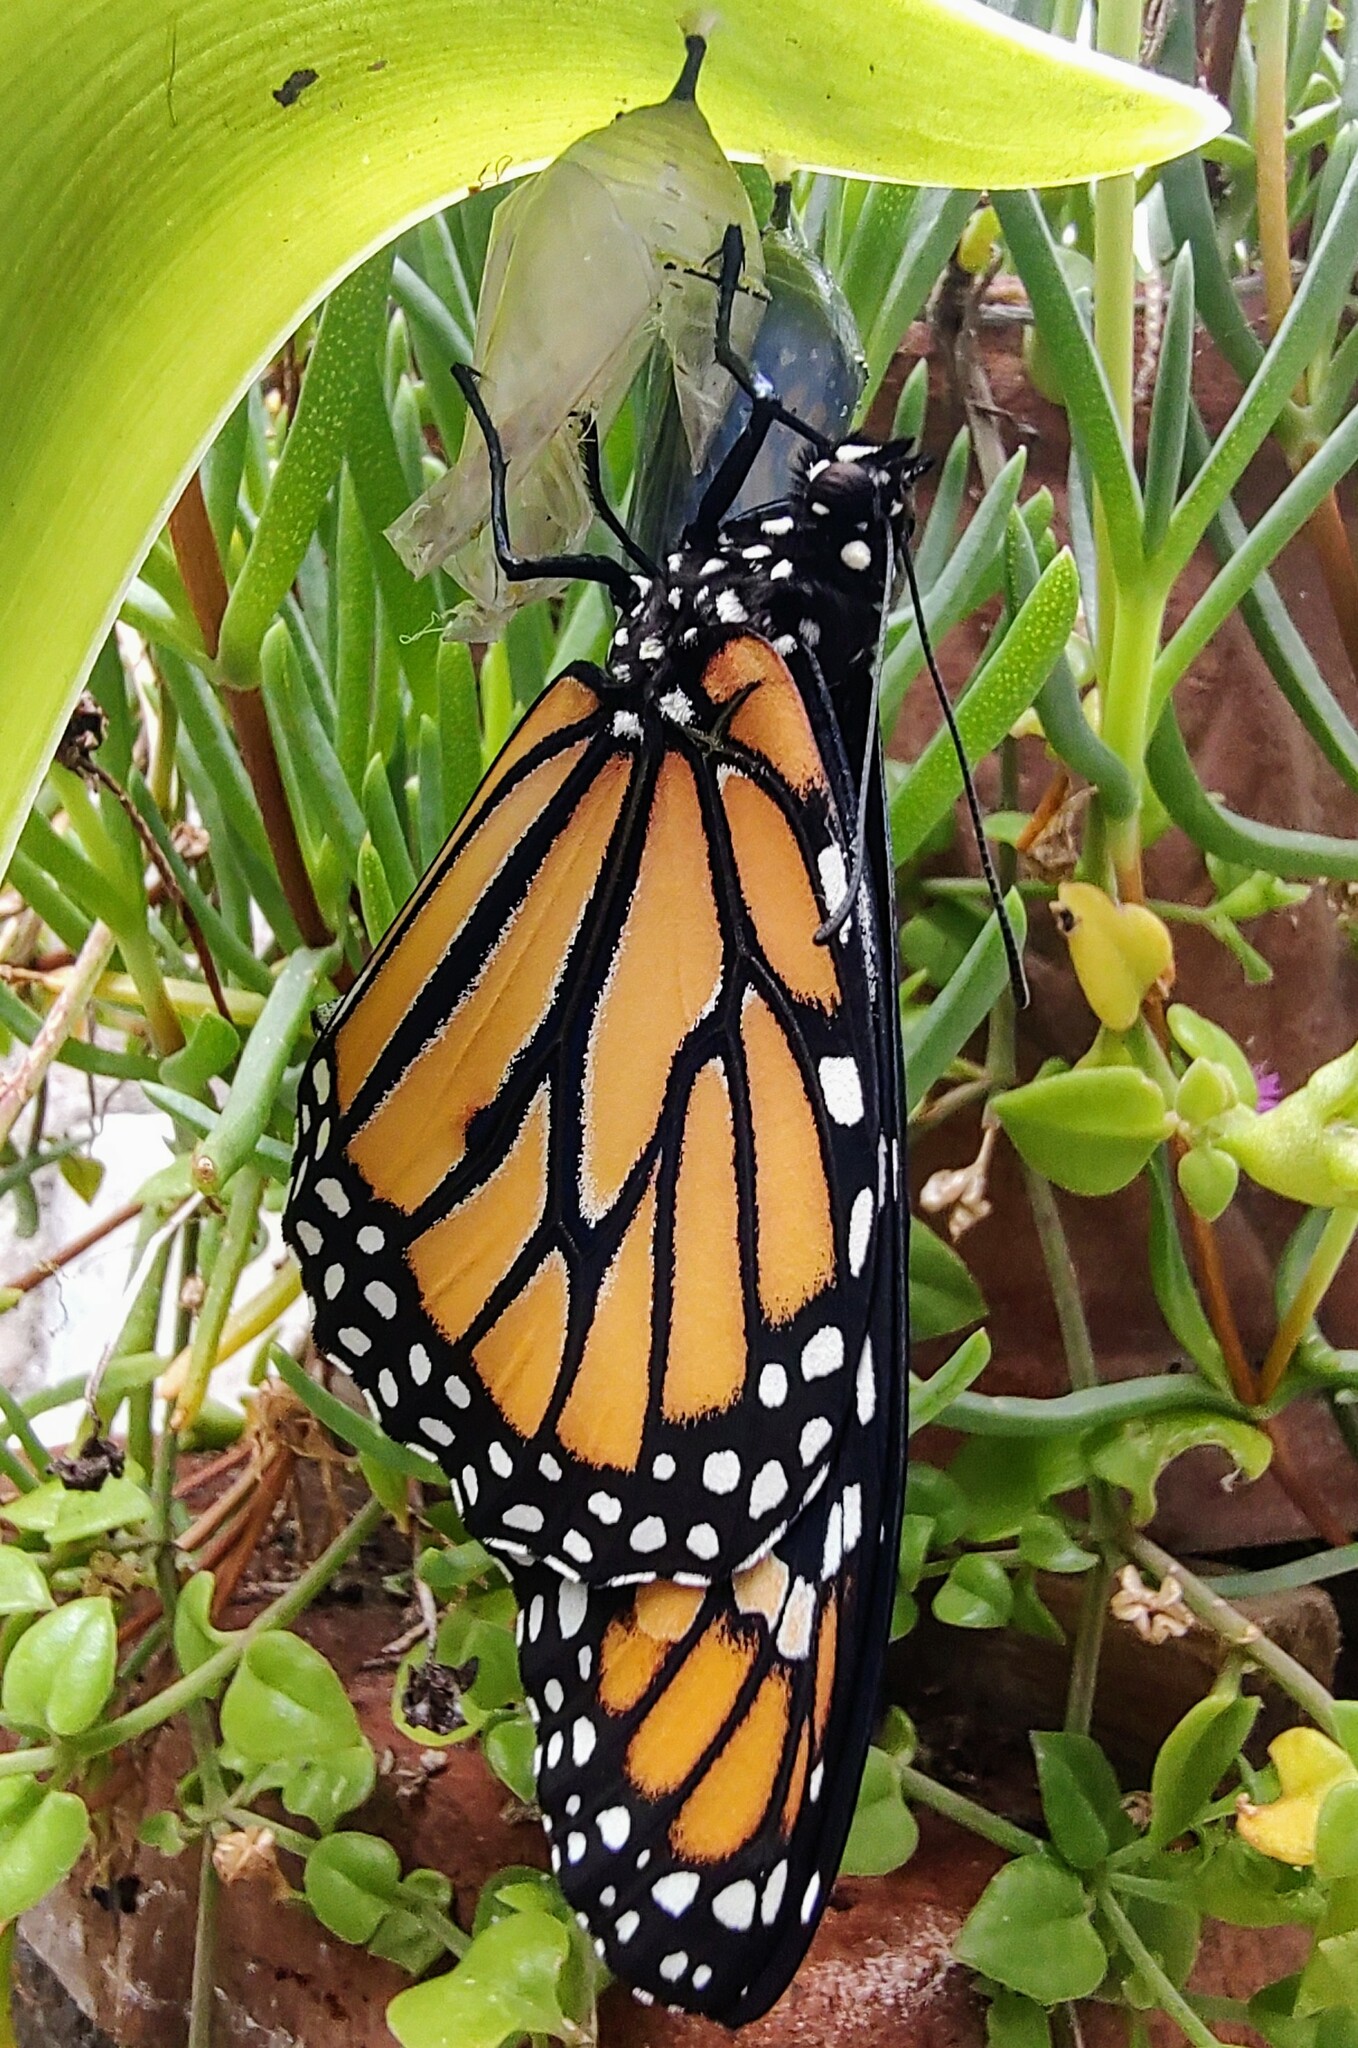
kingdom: Animalia
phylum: Arthropoda
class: Insecta
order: Lepidoptera
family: Nymphalidae
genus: Danaus
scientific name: Danaus plexippus
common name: Monarch
